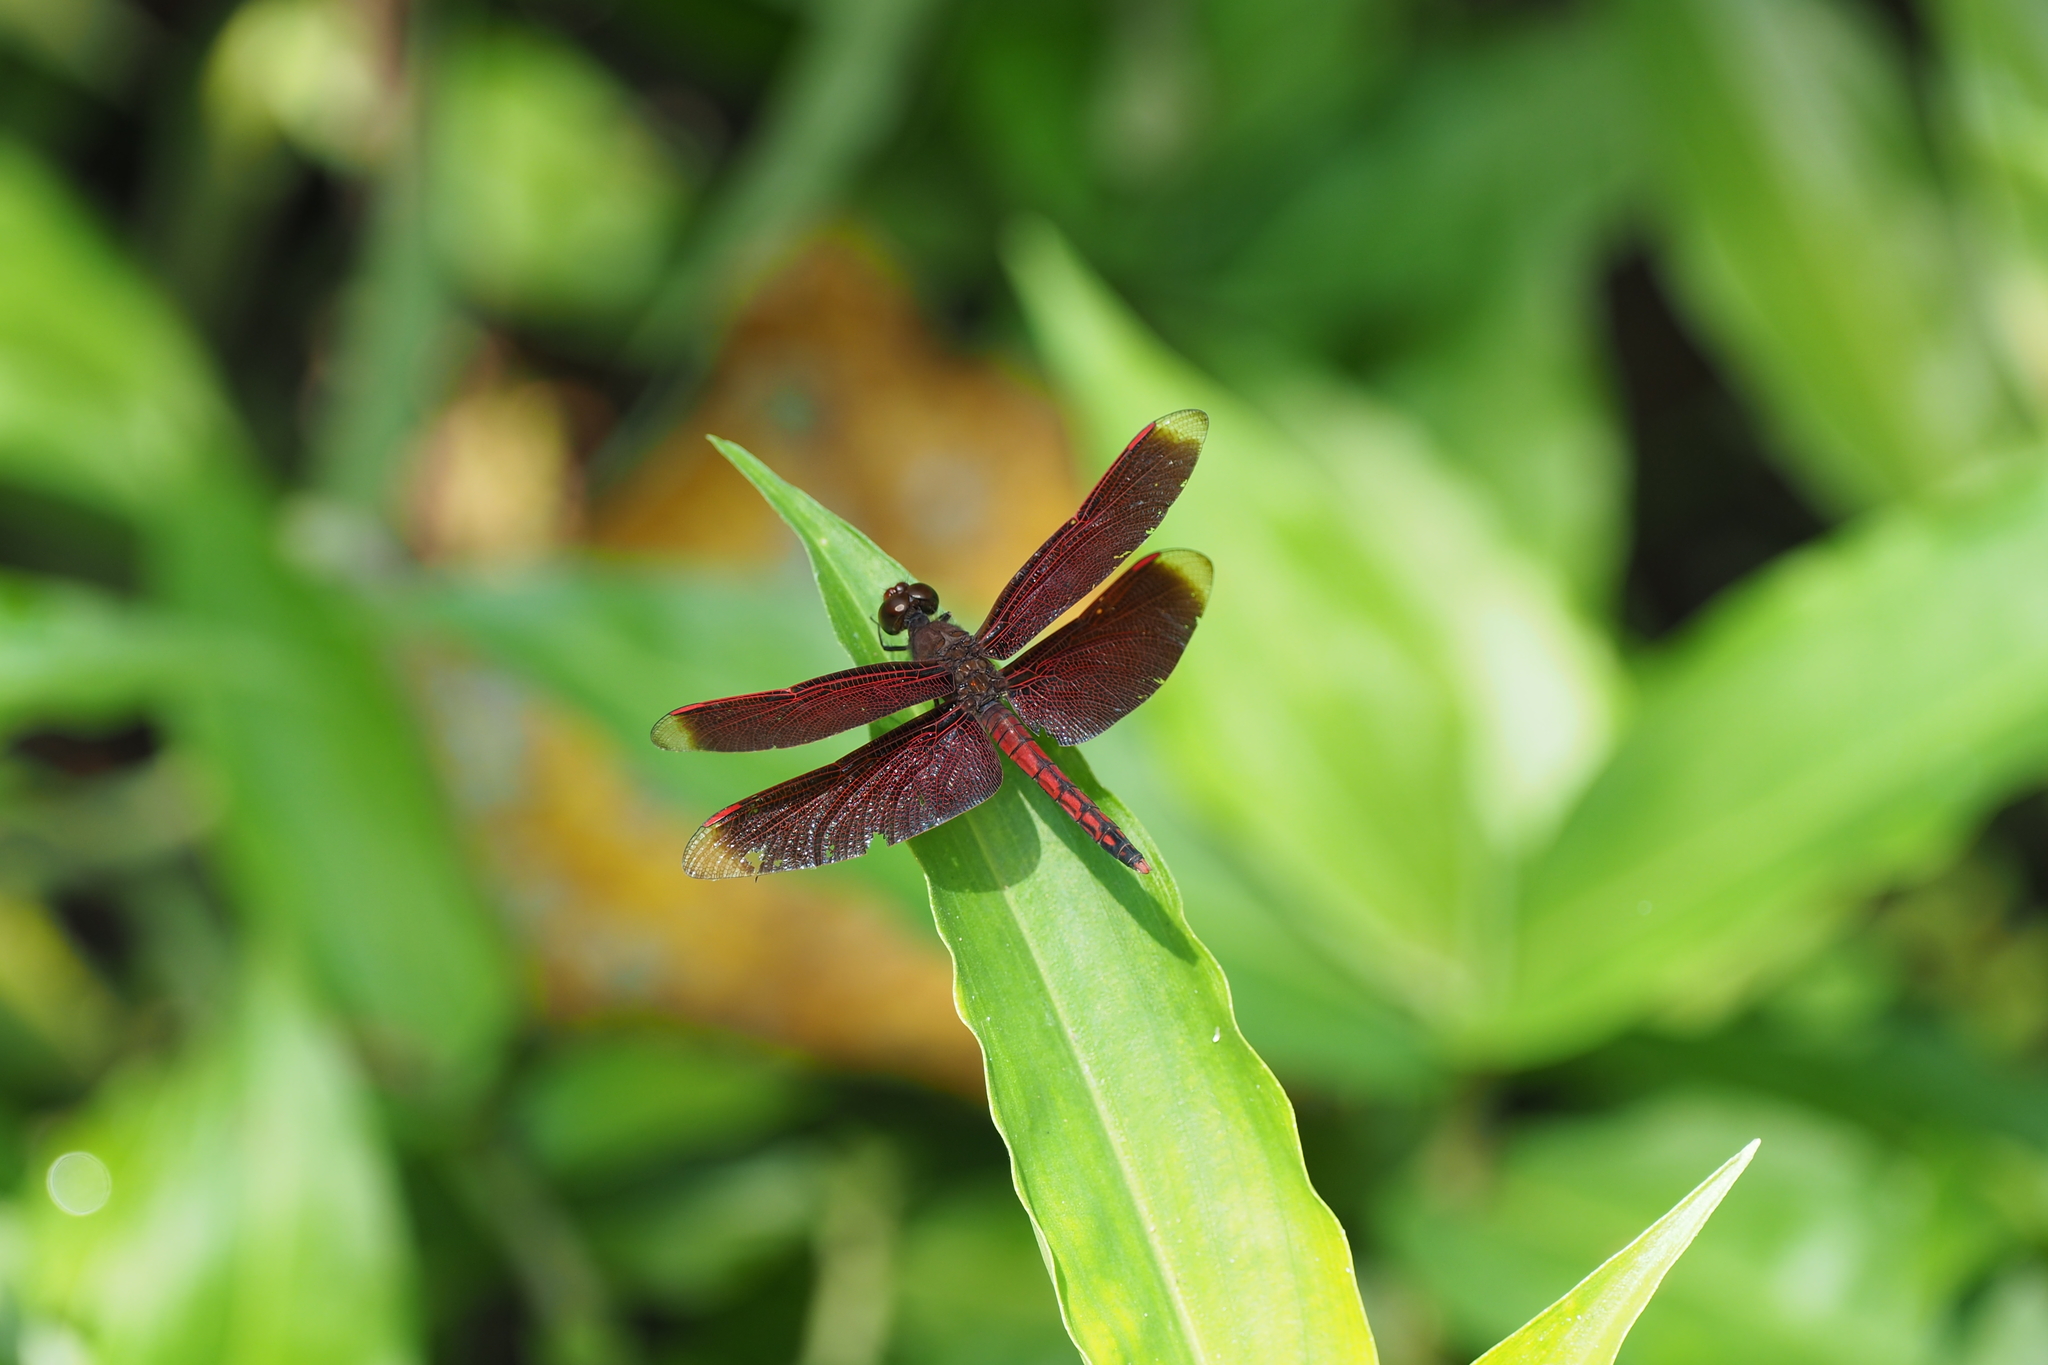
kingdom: Animalia
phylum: Arthropoda
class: Insecta
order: Odonata
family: Libellulidae
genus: Neurothemis
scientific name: Neurothemis taiwanensis
